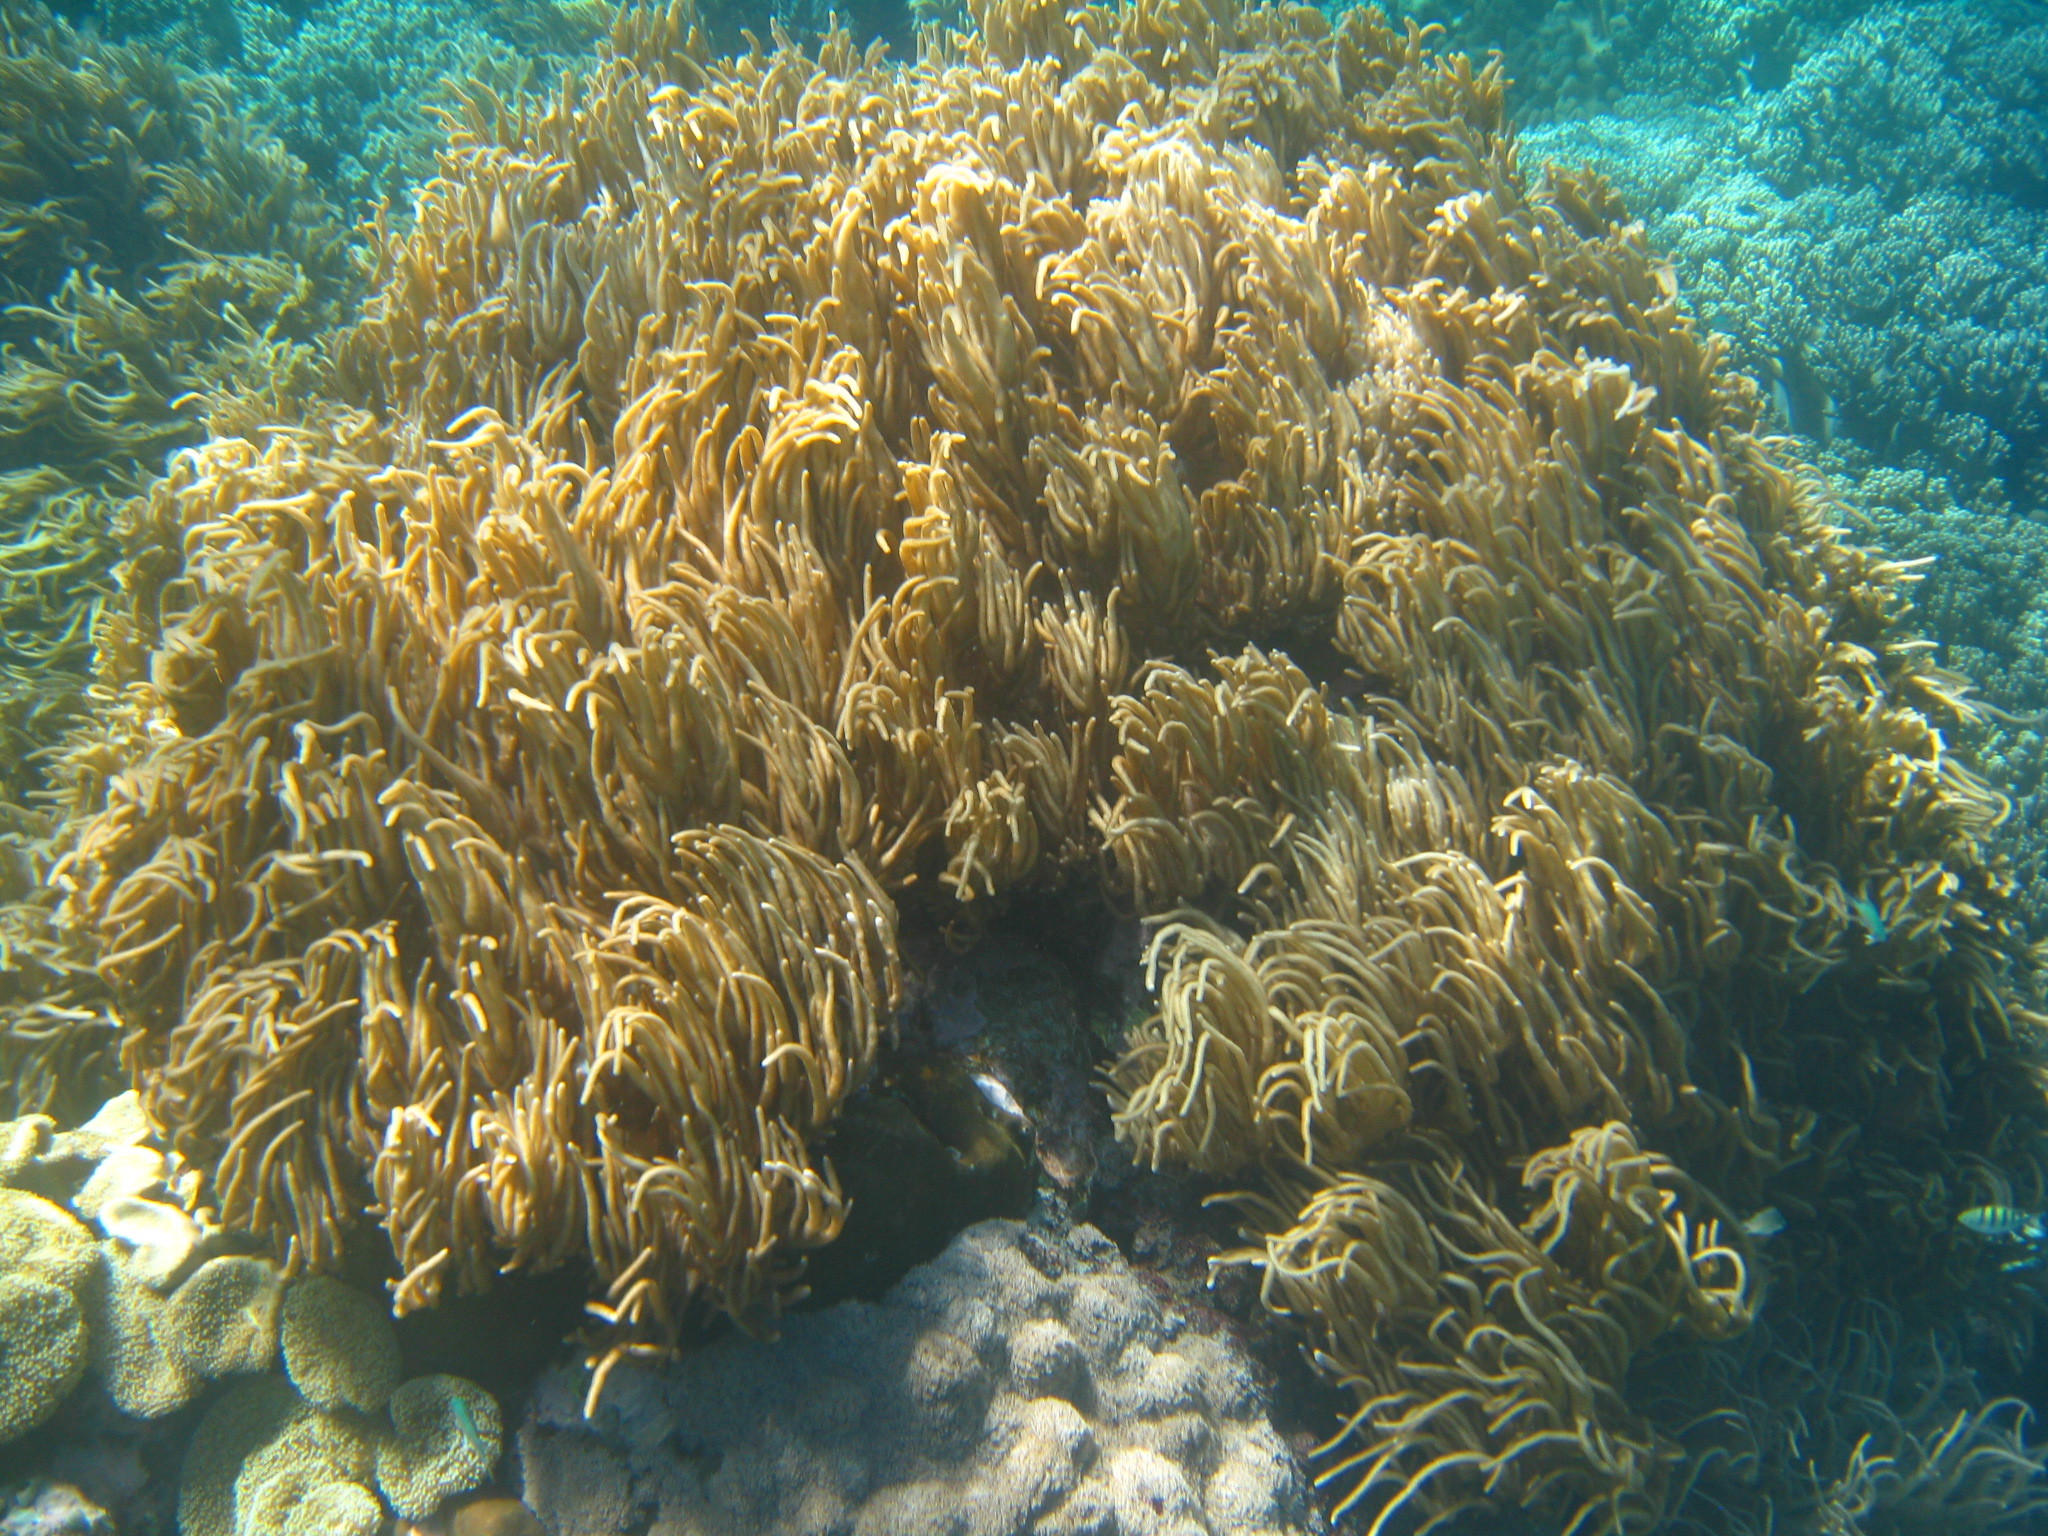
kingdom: Animalia
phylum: Cnidaria
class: Anthozoa
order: Malacalcyonacea
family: Sarcophytidae
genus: Sclerophytum
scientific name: Sclerophytum flexibile
